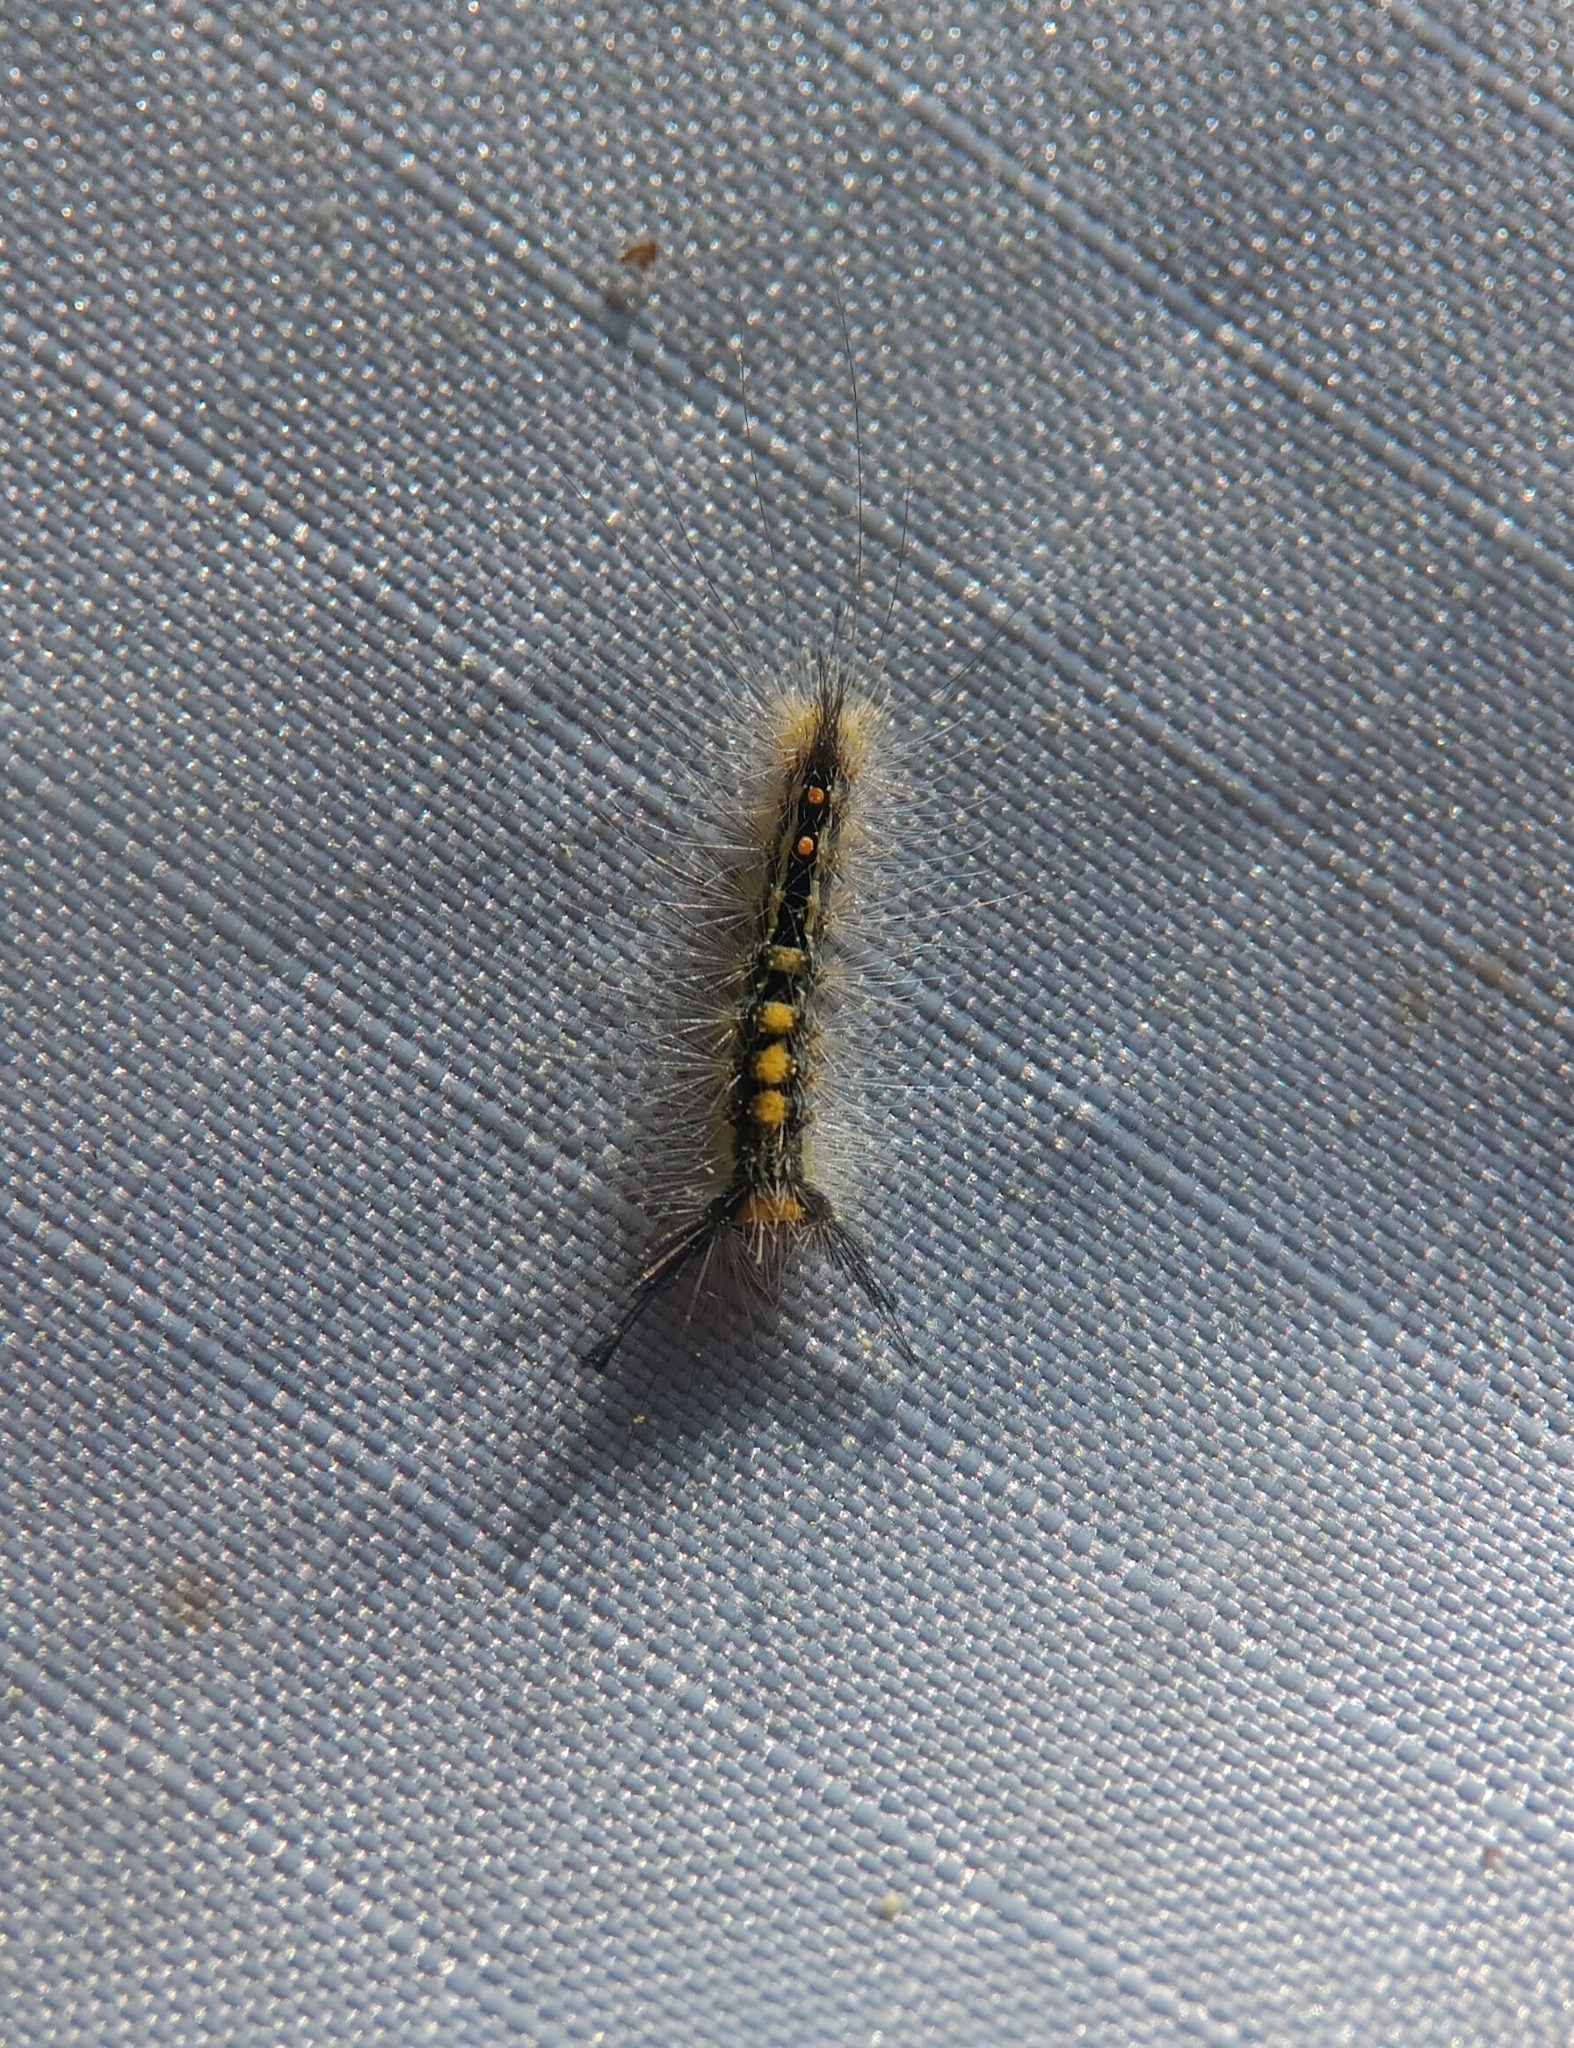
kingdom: Animalia
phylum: Arthropoda
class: Insecta
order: Lepidoptera
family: Erebidae
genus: Orgyia
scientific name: Orgyia leucostigma
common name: White-marked tussock moth
